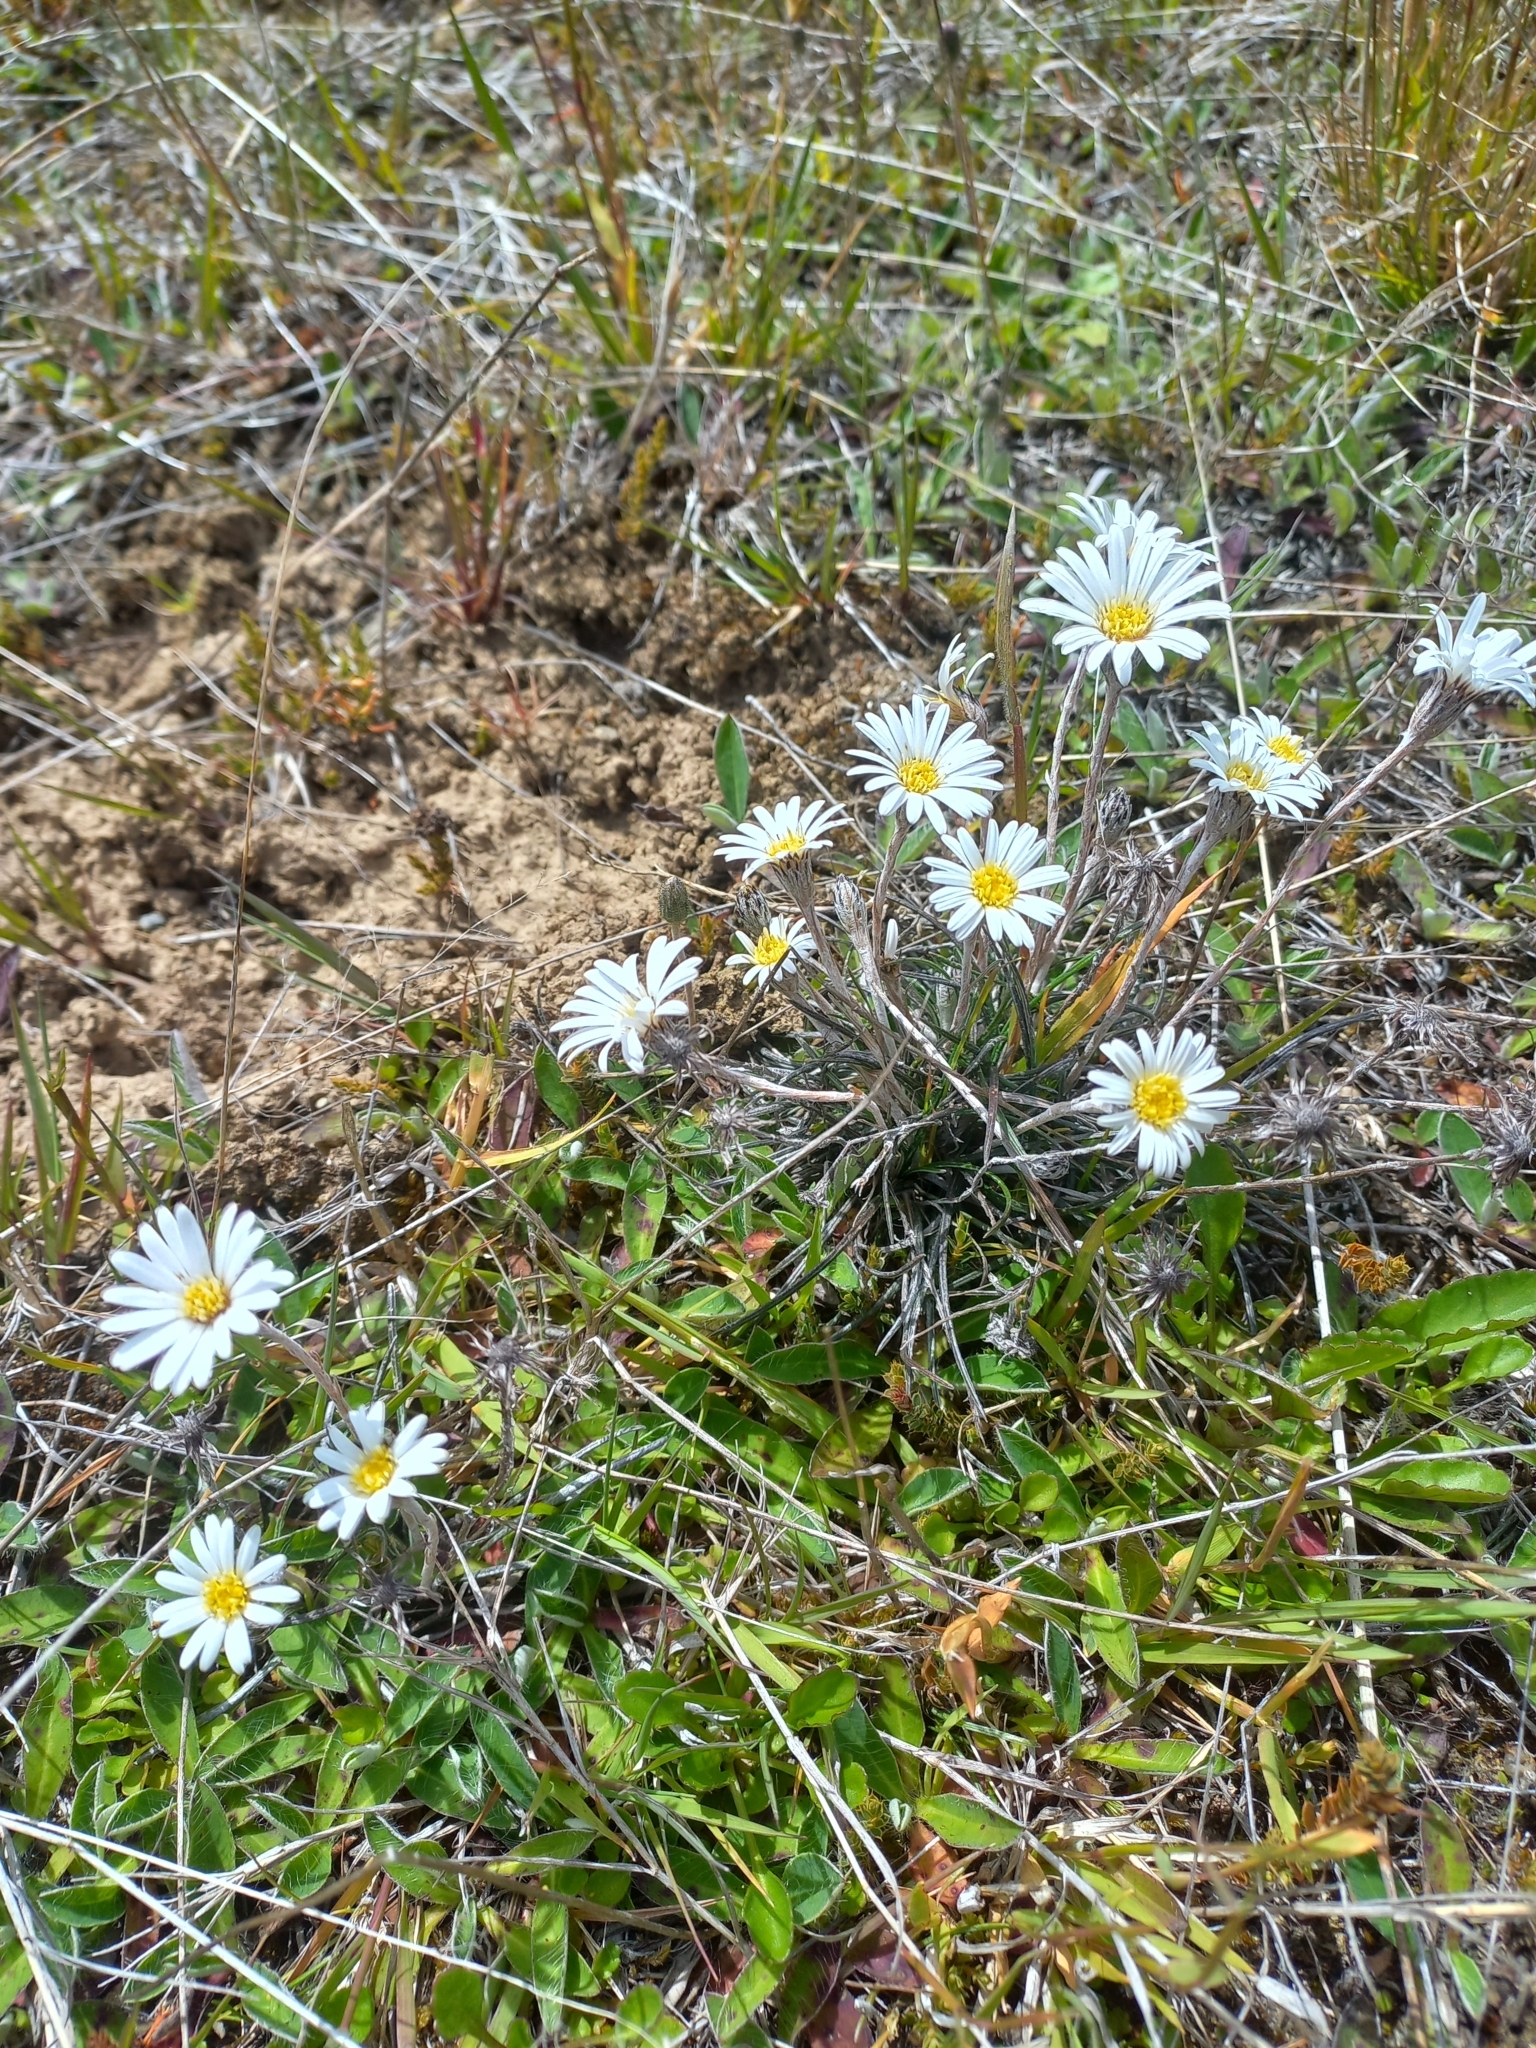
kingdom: Plantae
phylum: Tracheophyta
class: Magnoliopsida
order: Asterales
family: Asteraceae
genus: Celmisia
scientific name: Celmisia gracilenta
